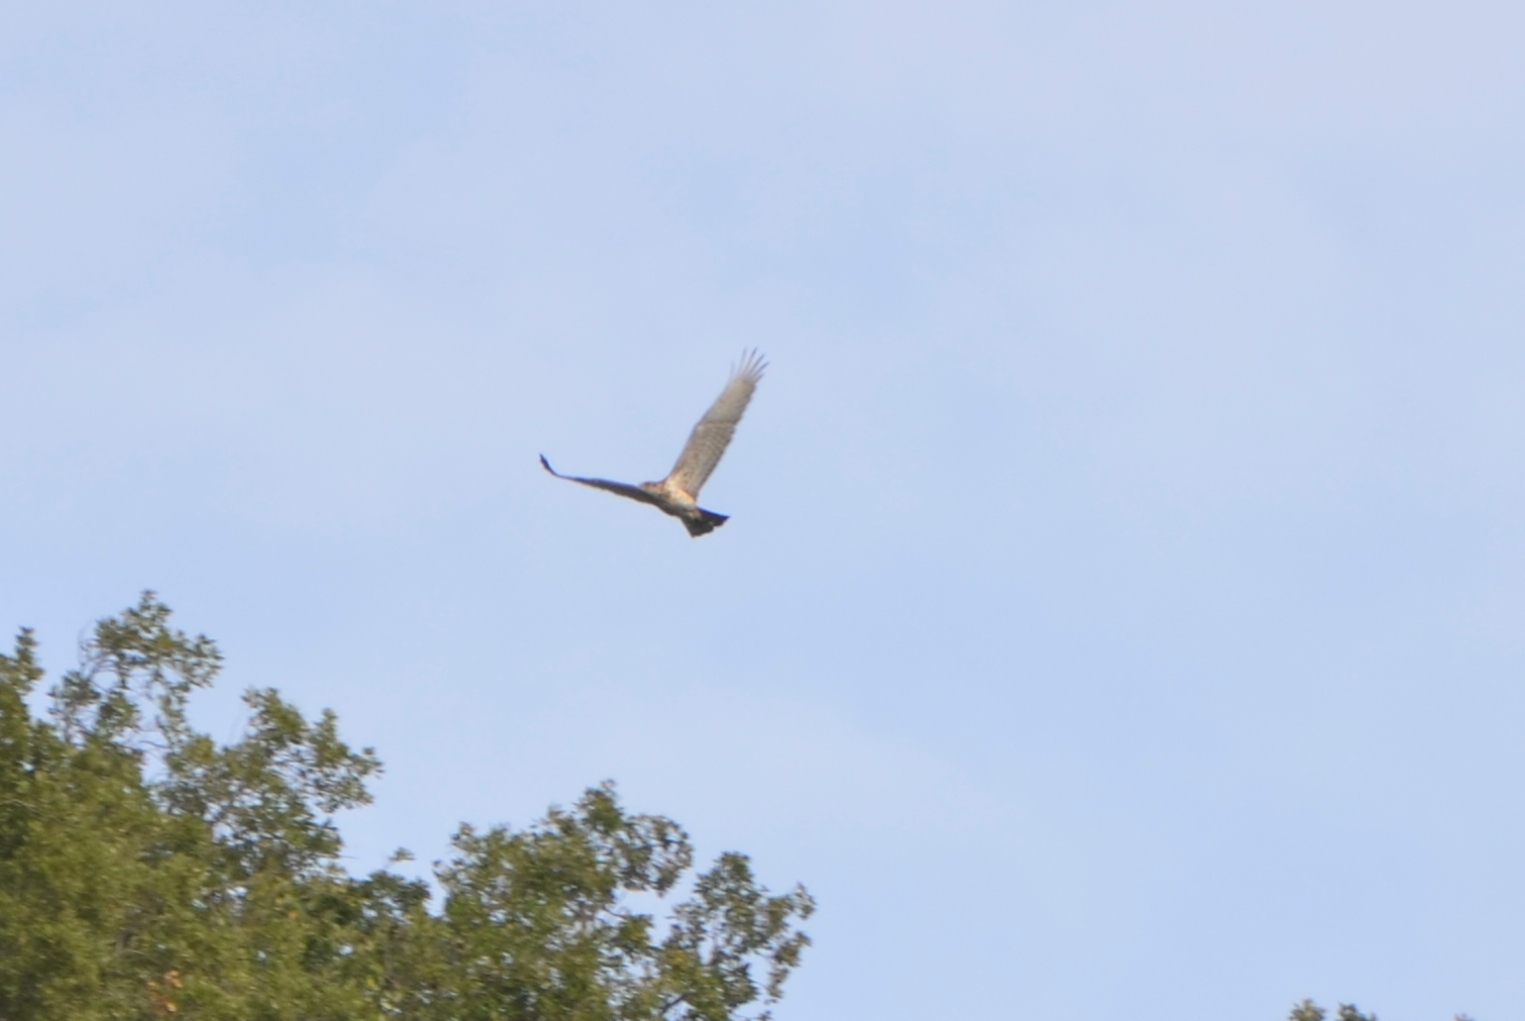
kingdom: Animalia
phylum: Chordata
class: Aves
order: Accipitriformes
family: Accipitridae
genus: Circaetus
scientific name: Circaetus gallicus
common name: Short-toed snake eagle
